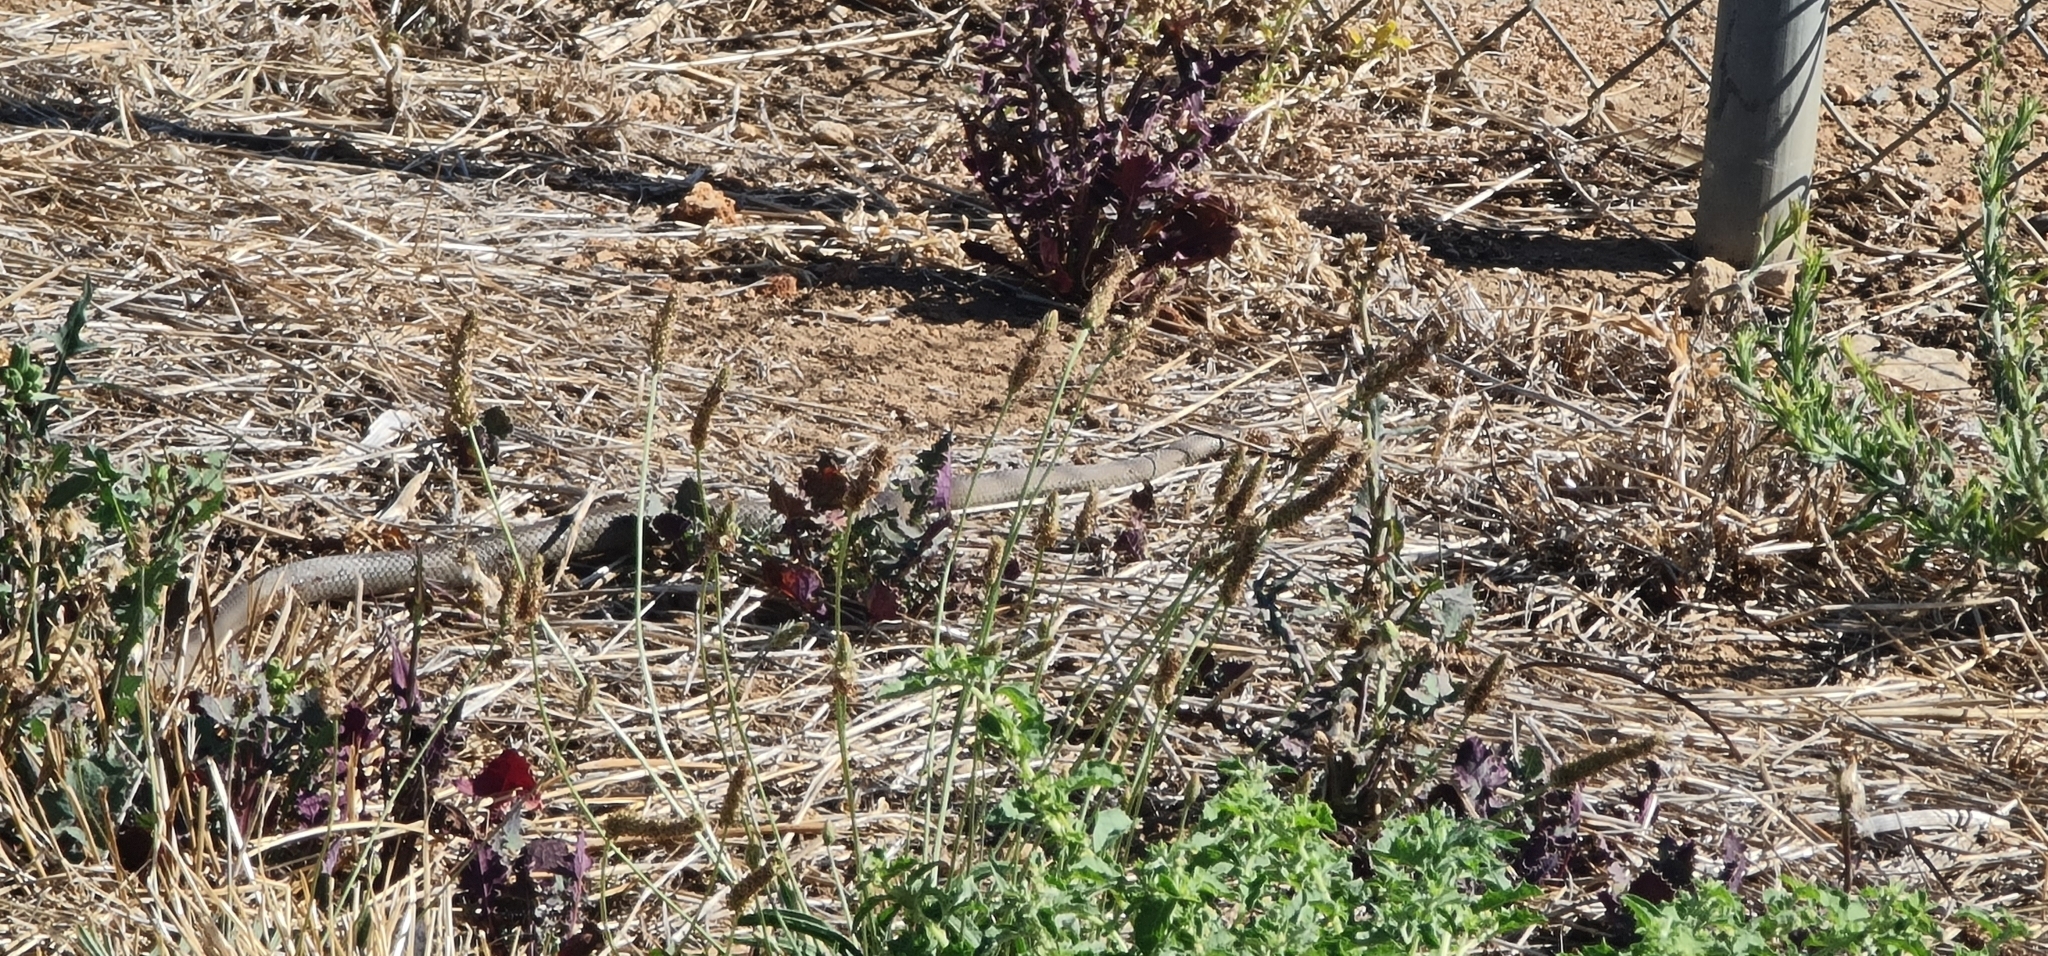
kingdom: Animalia
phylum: Chordata
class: Squamata
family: Elapidae
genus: Pseudonaja
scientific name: Pseudonaja textilis
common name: Eastern brown snake
